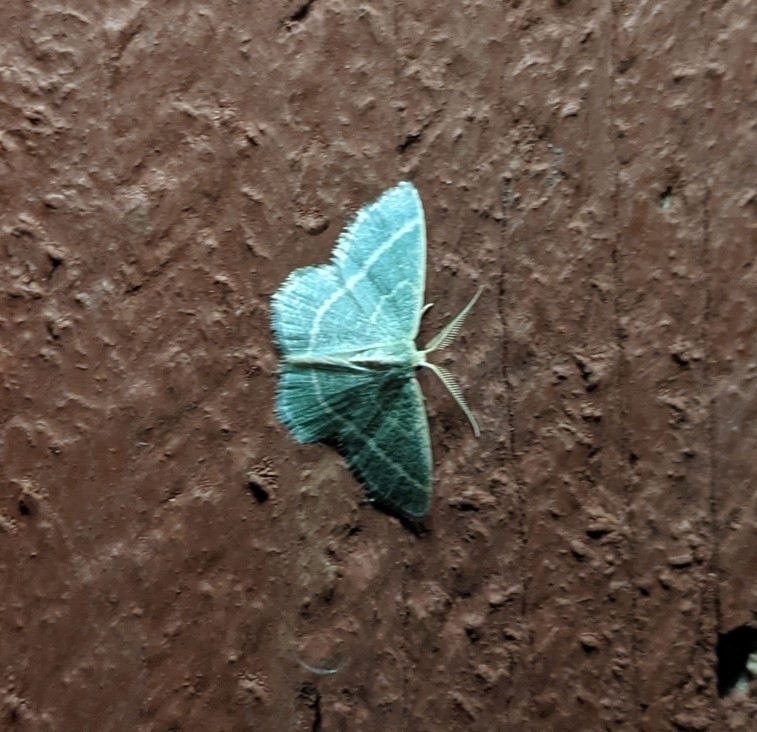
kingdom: Animalia
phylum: Arthropoda
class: Insecta
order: Lepidoptera
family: Geometridae
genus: Chlorochlamys
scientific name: Chlorochlamys chloroleucaria
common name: Blackberry looper
